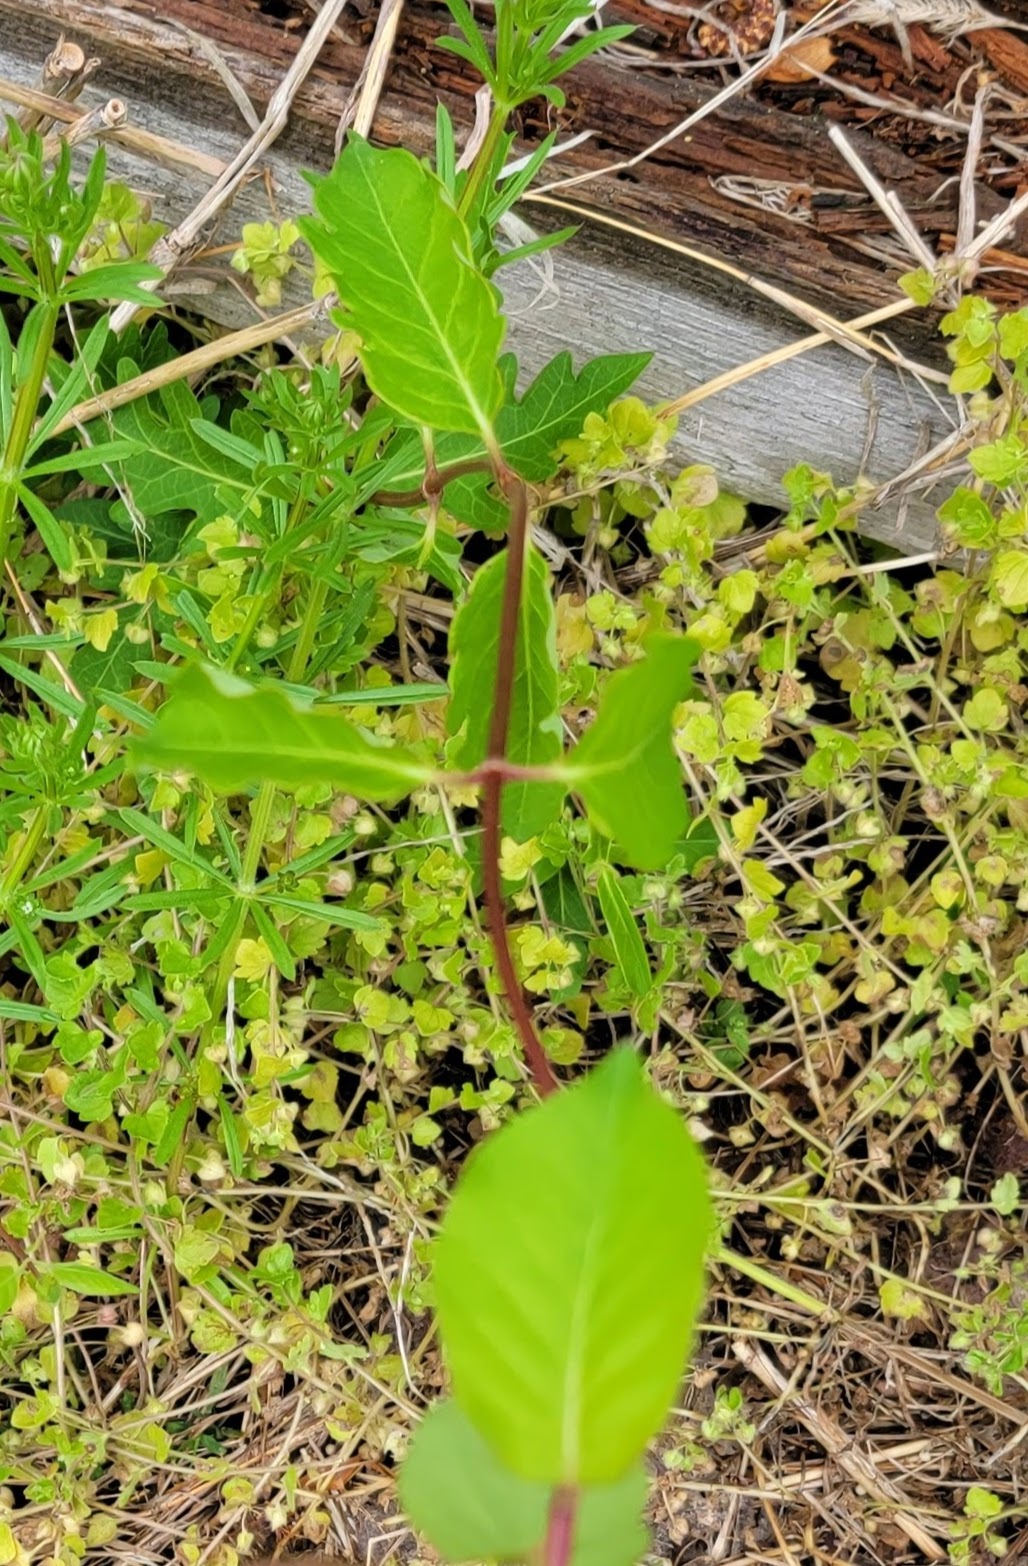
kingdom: Plantae
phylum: Tracheophyta
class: Magnoliopsida
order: Dipsacales
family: Caprifoliaceae
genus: Lonicera
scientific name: Lonicera japonica
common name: Japanese honeysuckle
